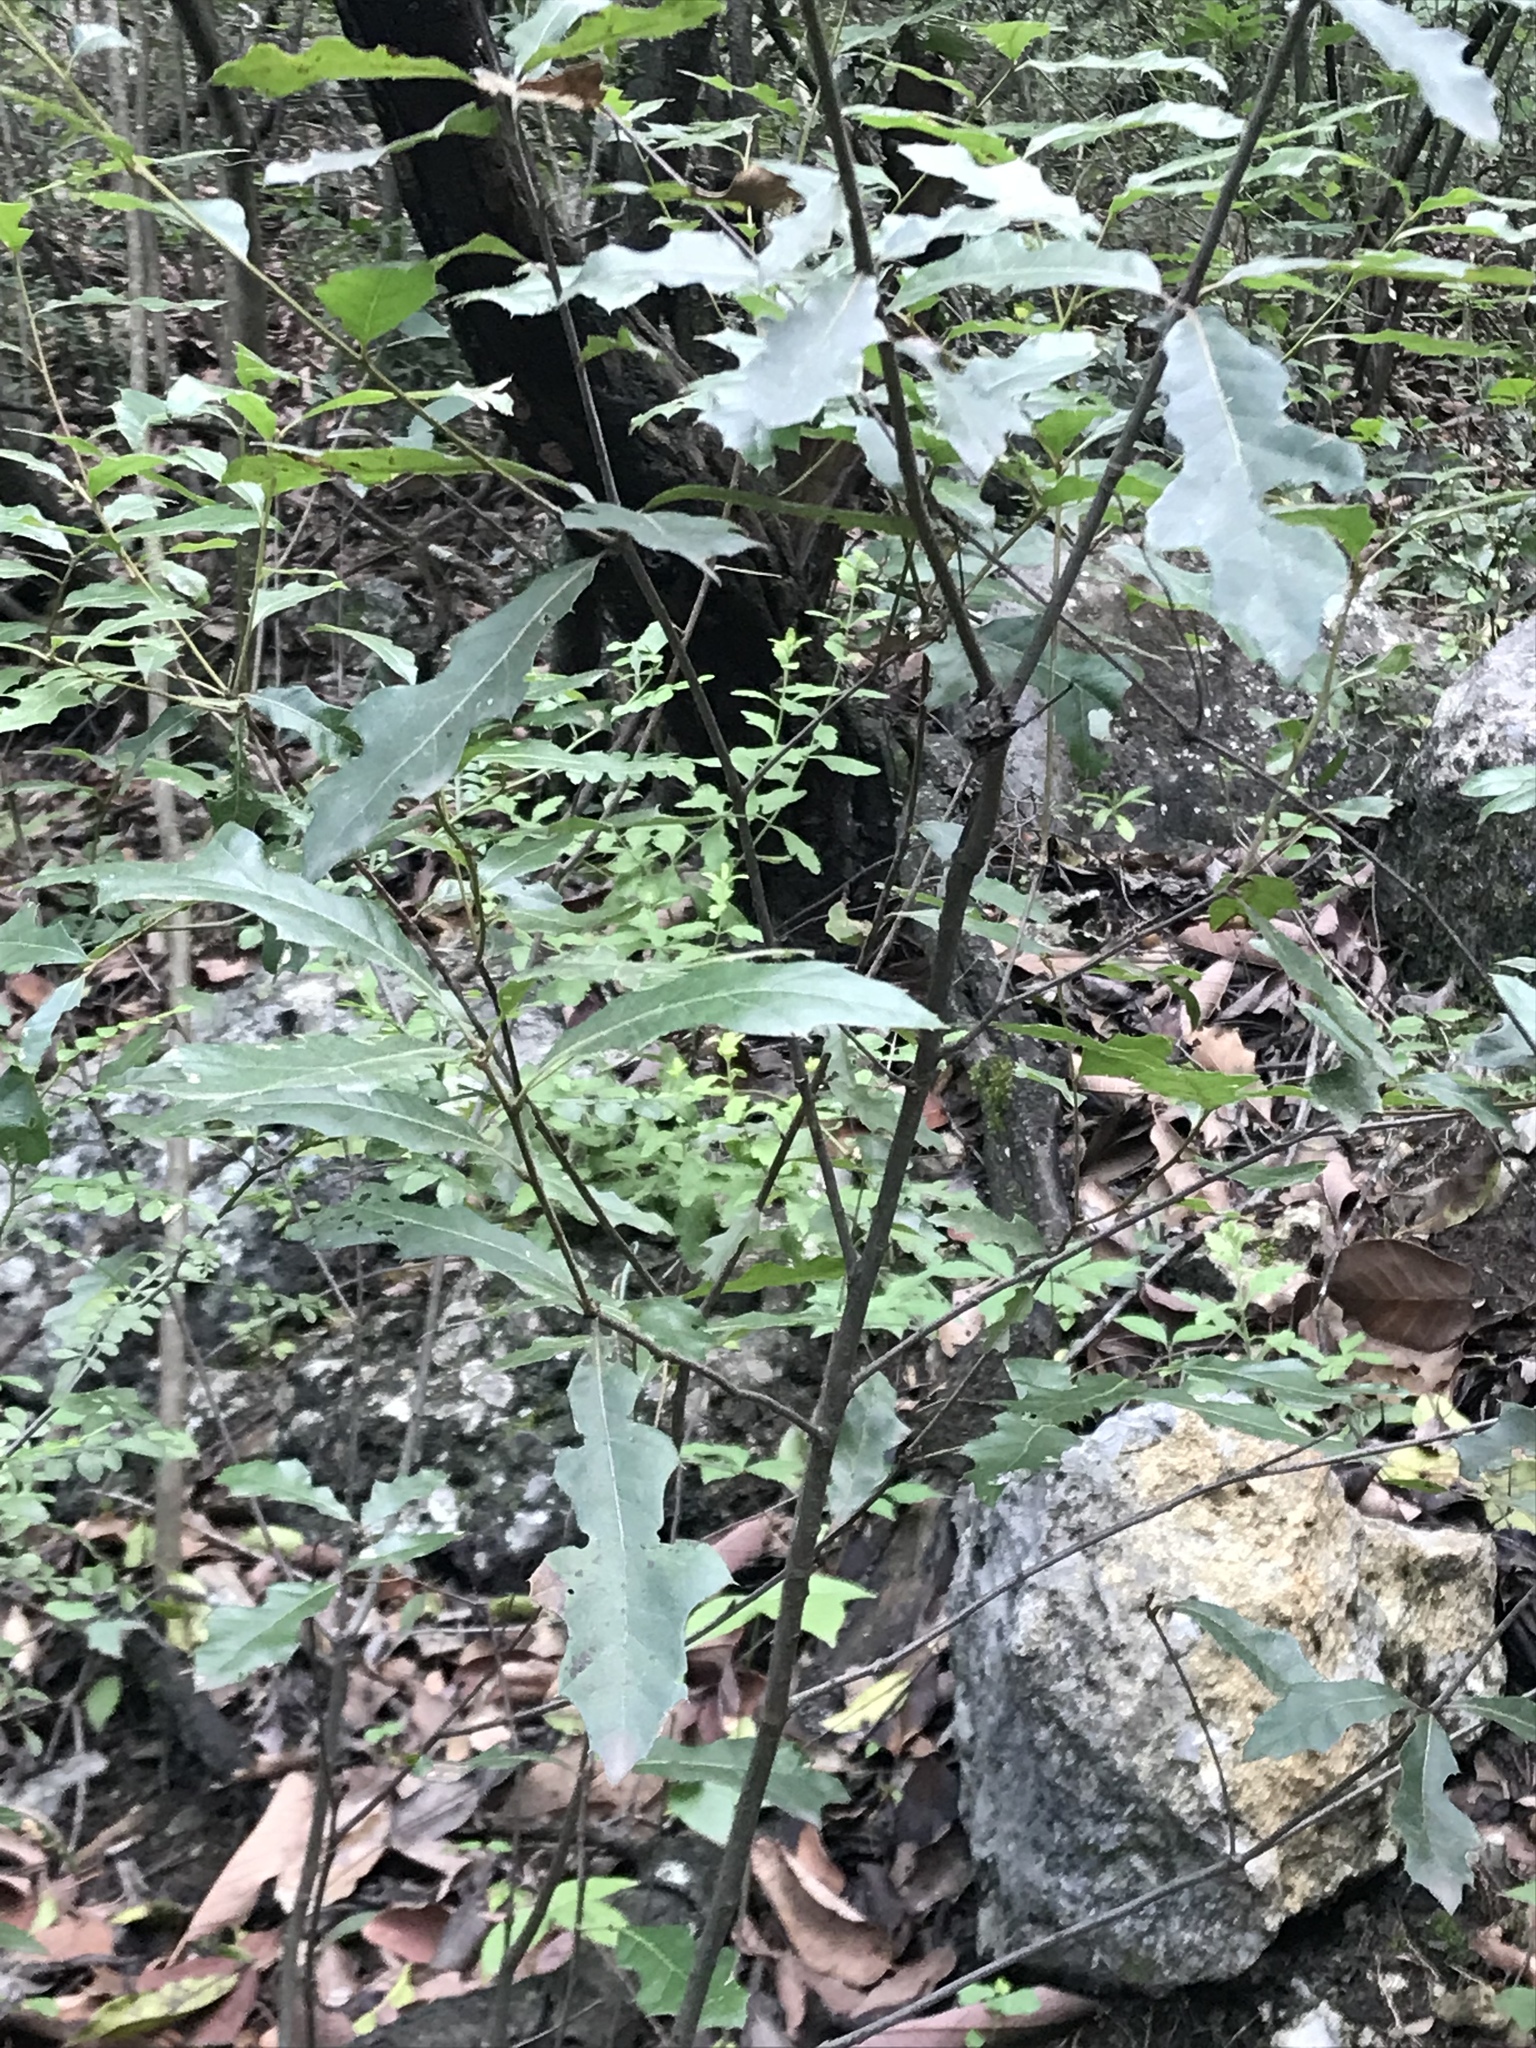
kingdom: Plantae
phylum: Tracheophyta
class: Magnoliopsida
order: Fagales
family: Fagaceae
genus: Quercus
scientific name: Quercus gravesii
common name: Chisos red oak
